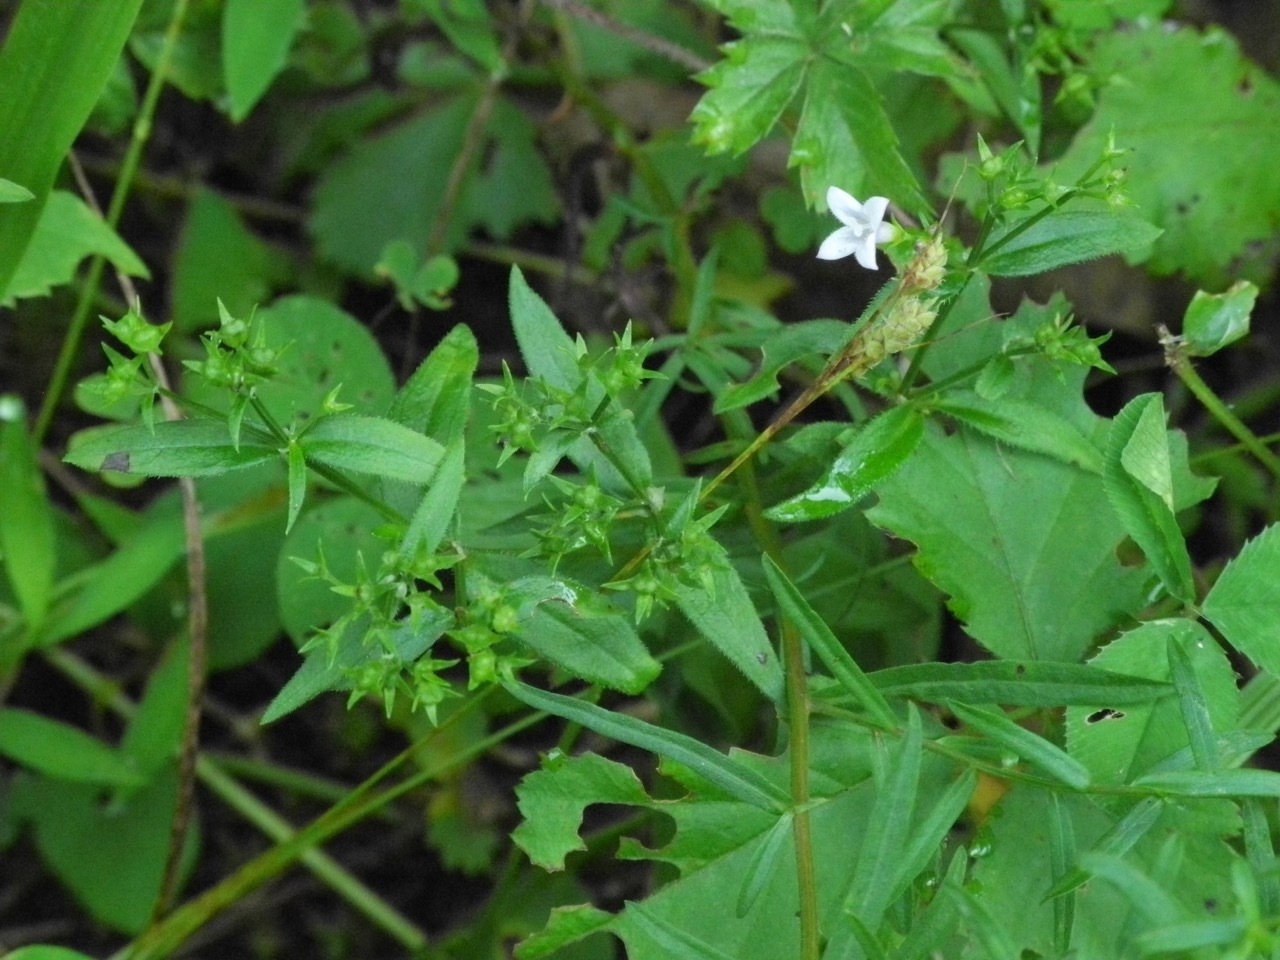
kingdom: Plantae
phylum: Tracheophyta
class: Magnoliopsida
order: Gentianales
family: Rubiaceae
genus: Houstonia
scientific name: Houstonia longifolia
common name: Long-leaved bluets
